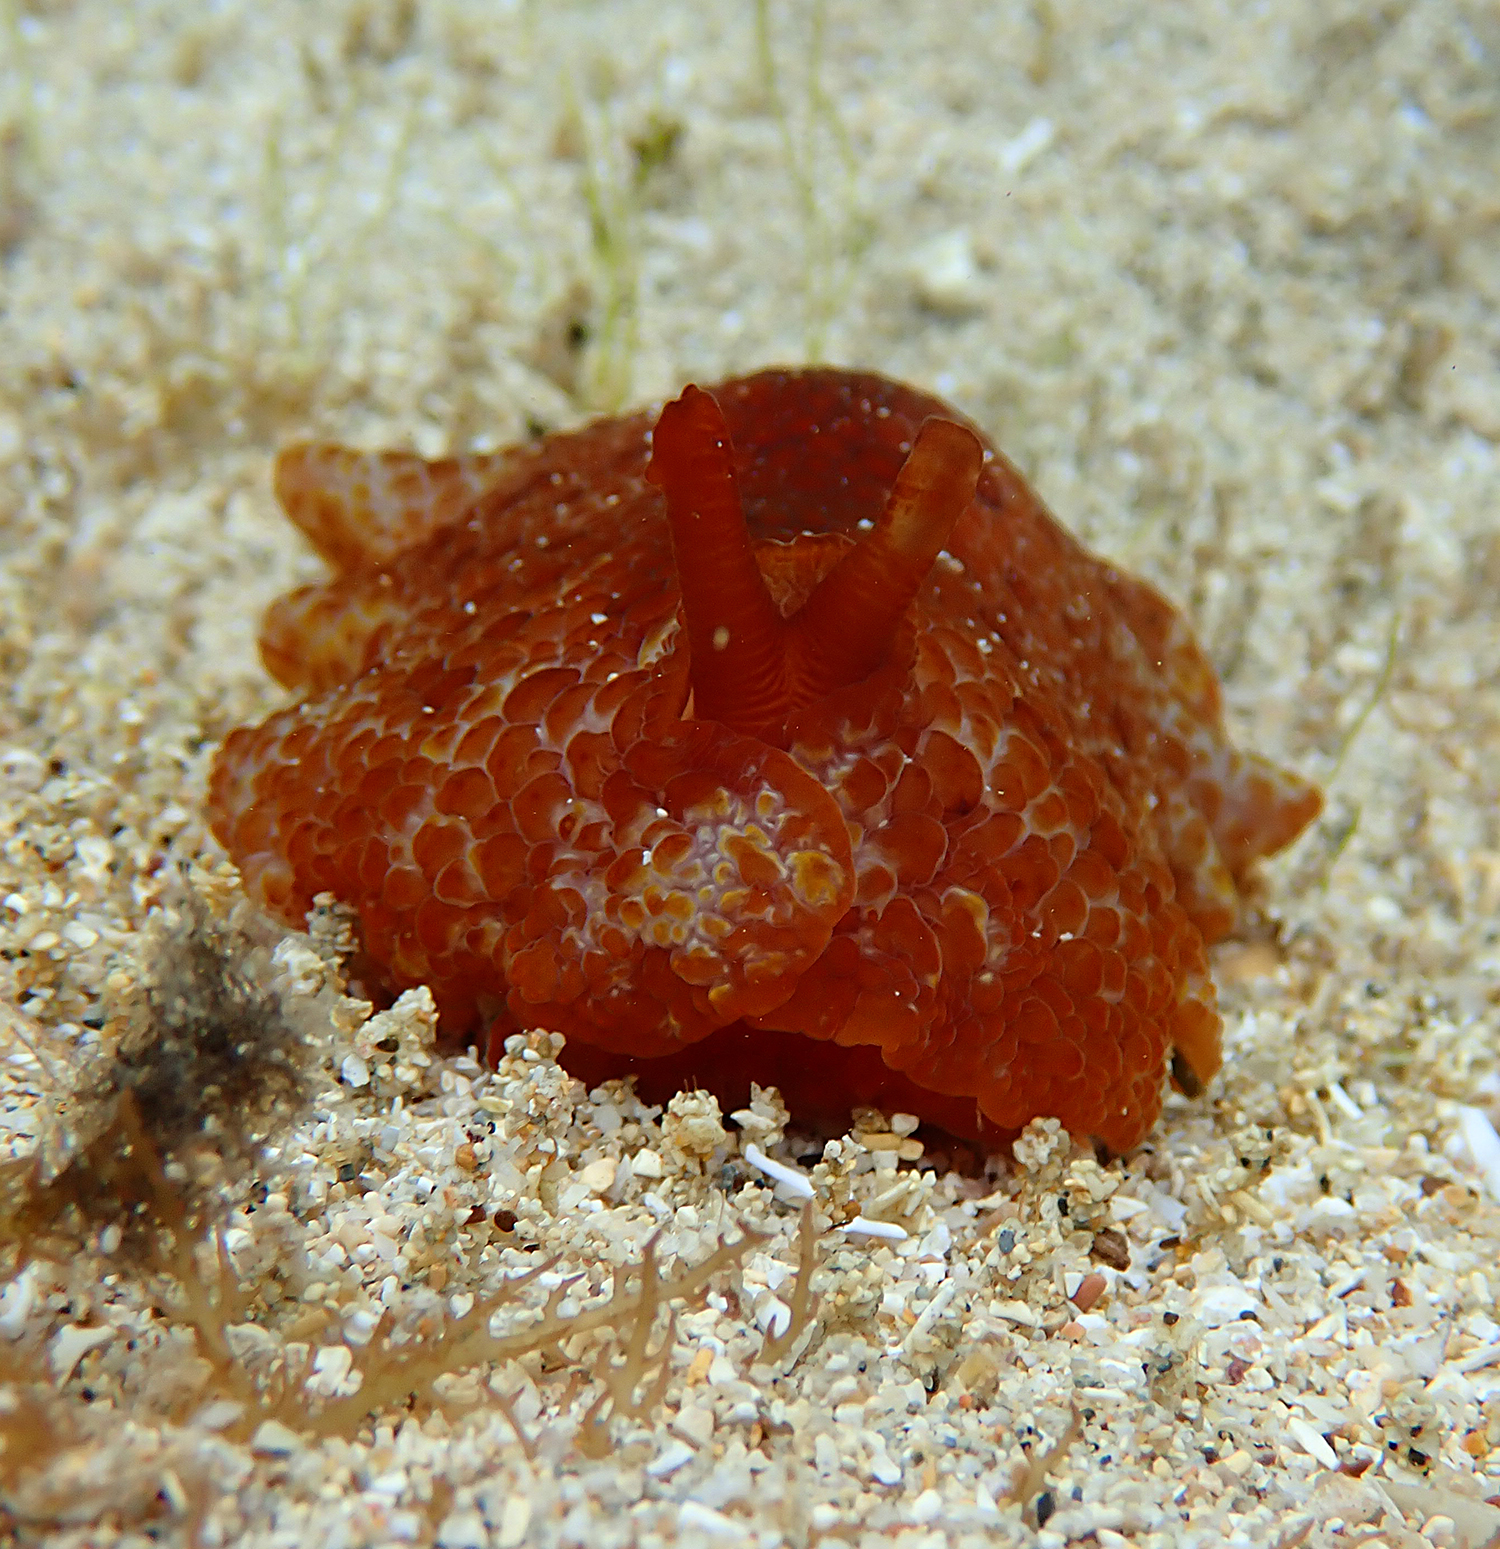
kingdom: Animalia
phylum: Mollusca
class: Gastropoda
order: Pleurobranchida
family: Pleurobranchidae
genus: Pleurobranchus
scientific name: Pleurobranchus peronii
